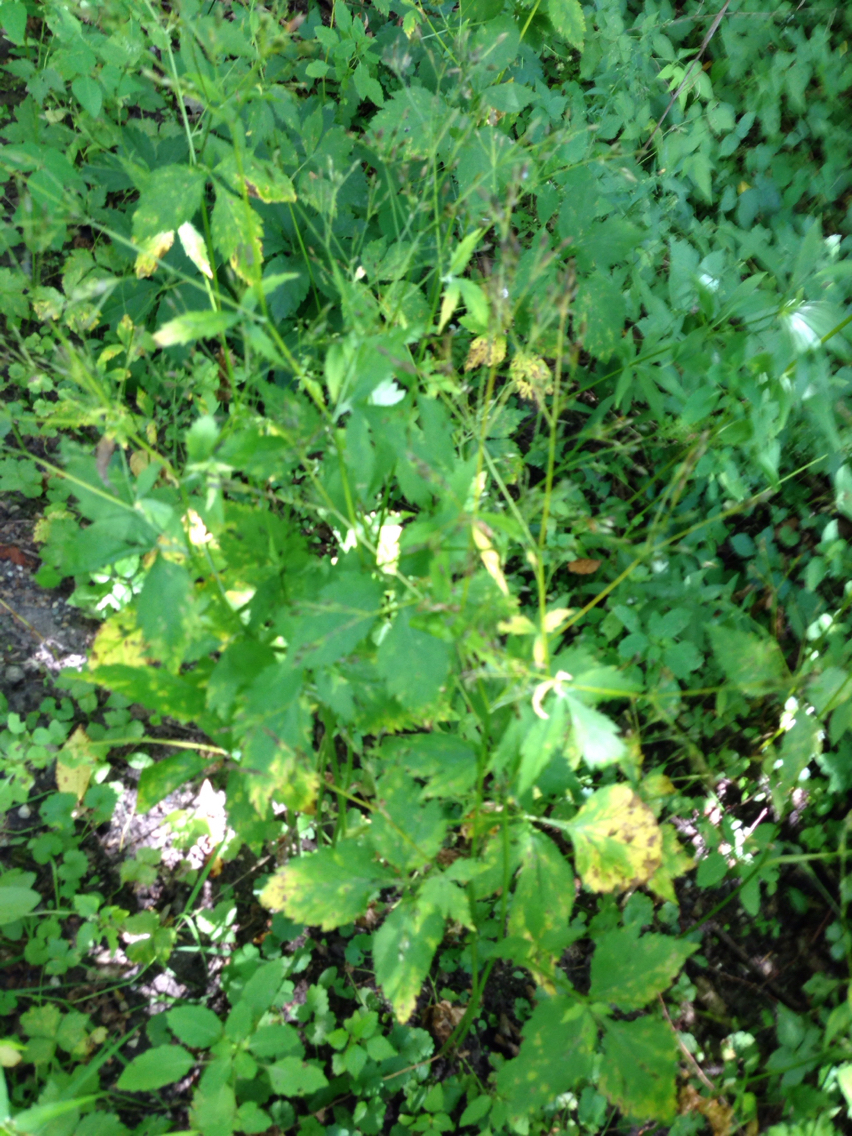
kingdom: Plantae
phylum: Tracheophyta
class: Magnoliopsida
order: Apiales
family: Apiaceae
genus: Cryptotaenia
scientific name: Cryptotaenia canadensis
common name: Honewort
